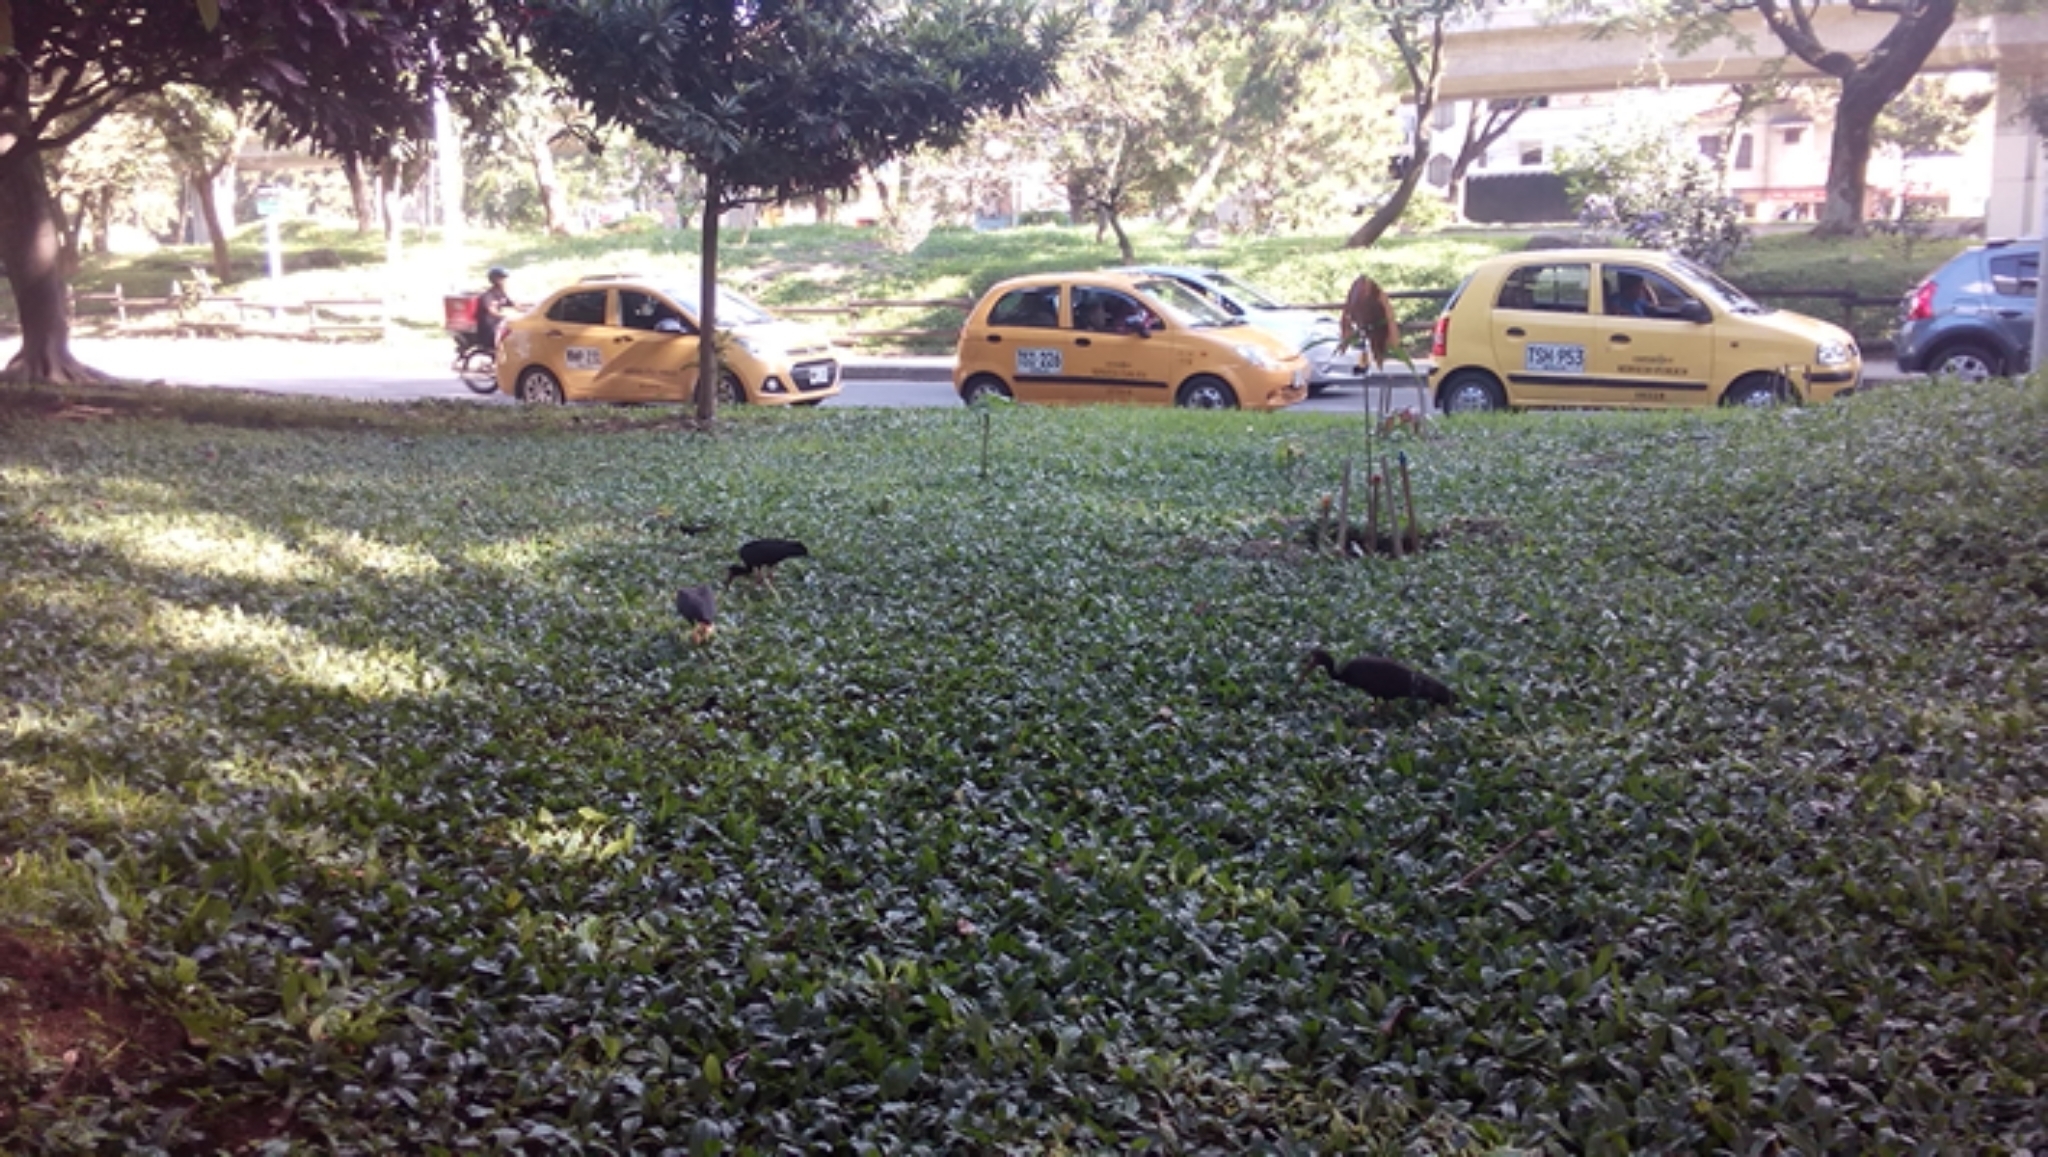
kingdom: Animalia
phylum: Chordata
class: Aves
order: Pelecaniformes
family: Threskiornithidae
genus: Phimosus
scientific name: Phimosus infuscatus
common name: Bare-faced ibis
